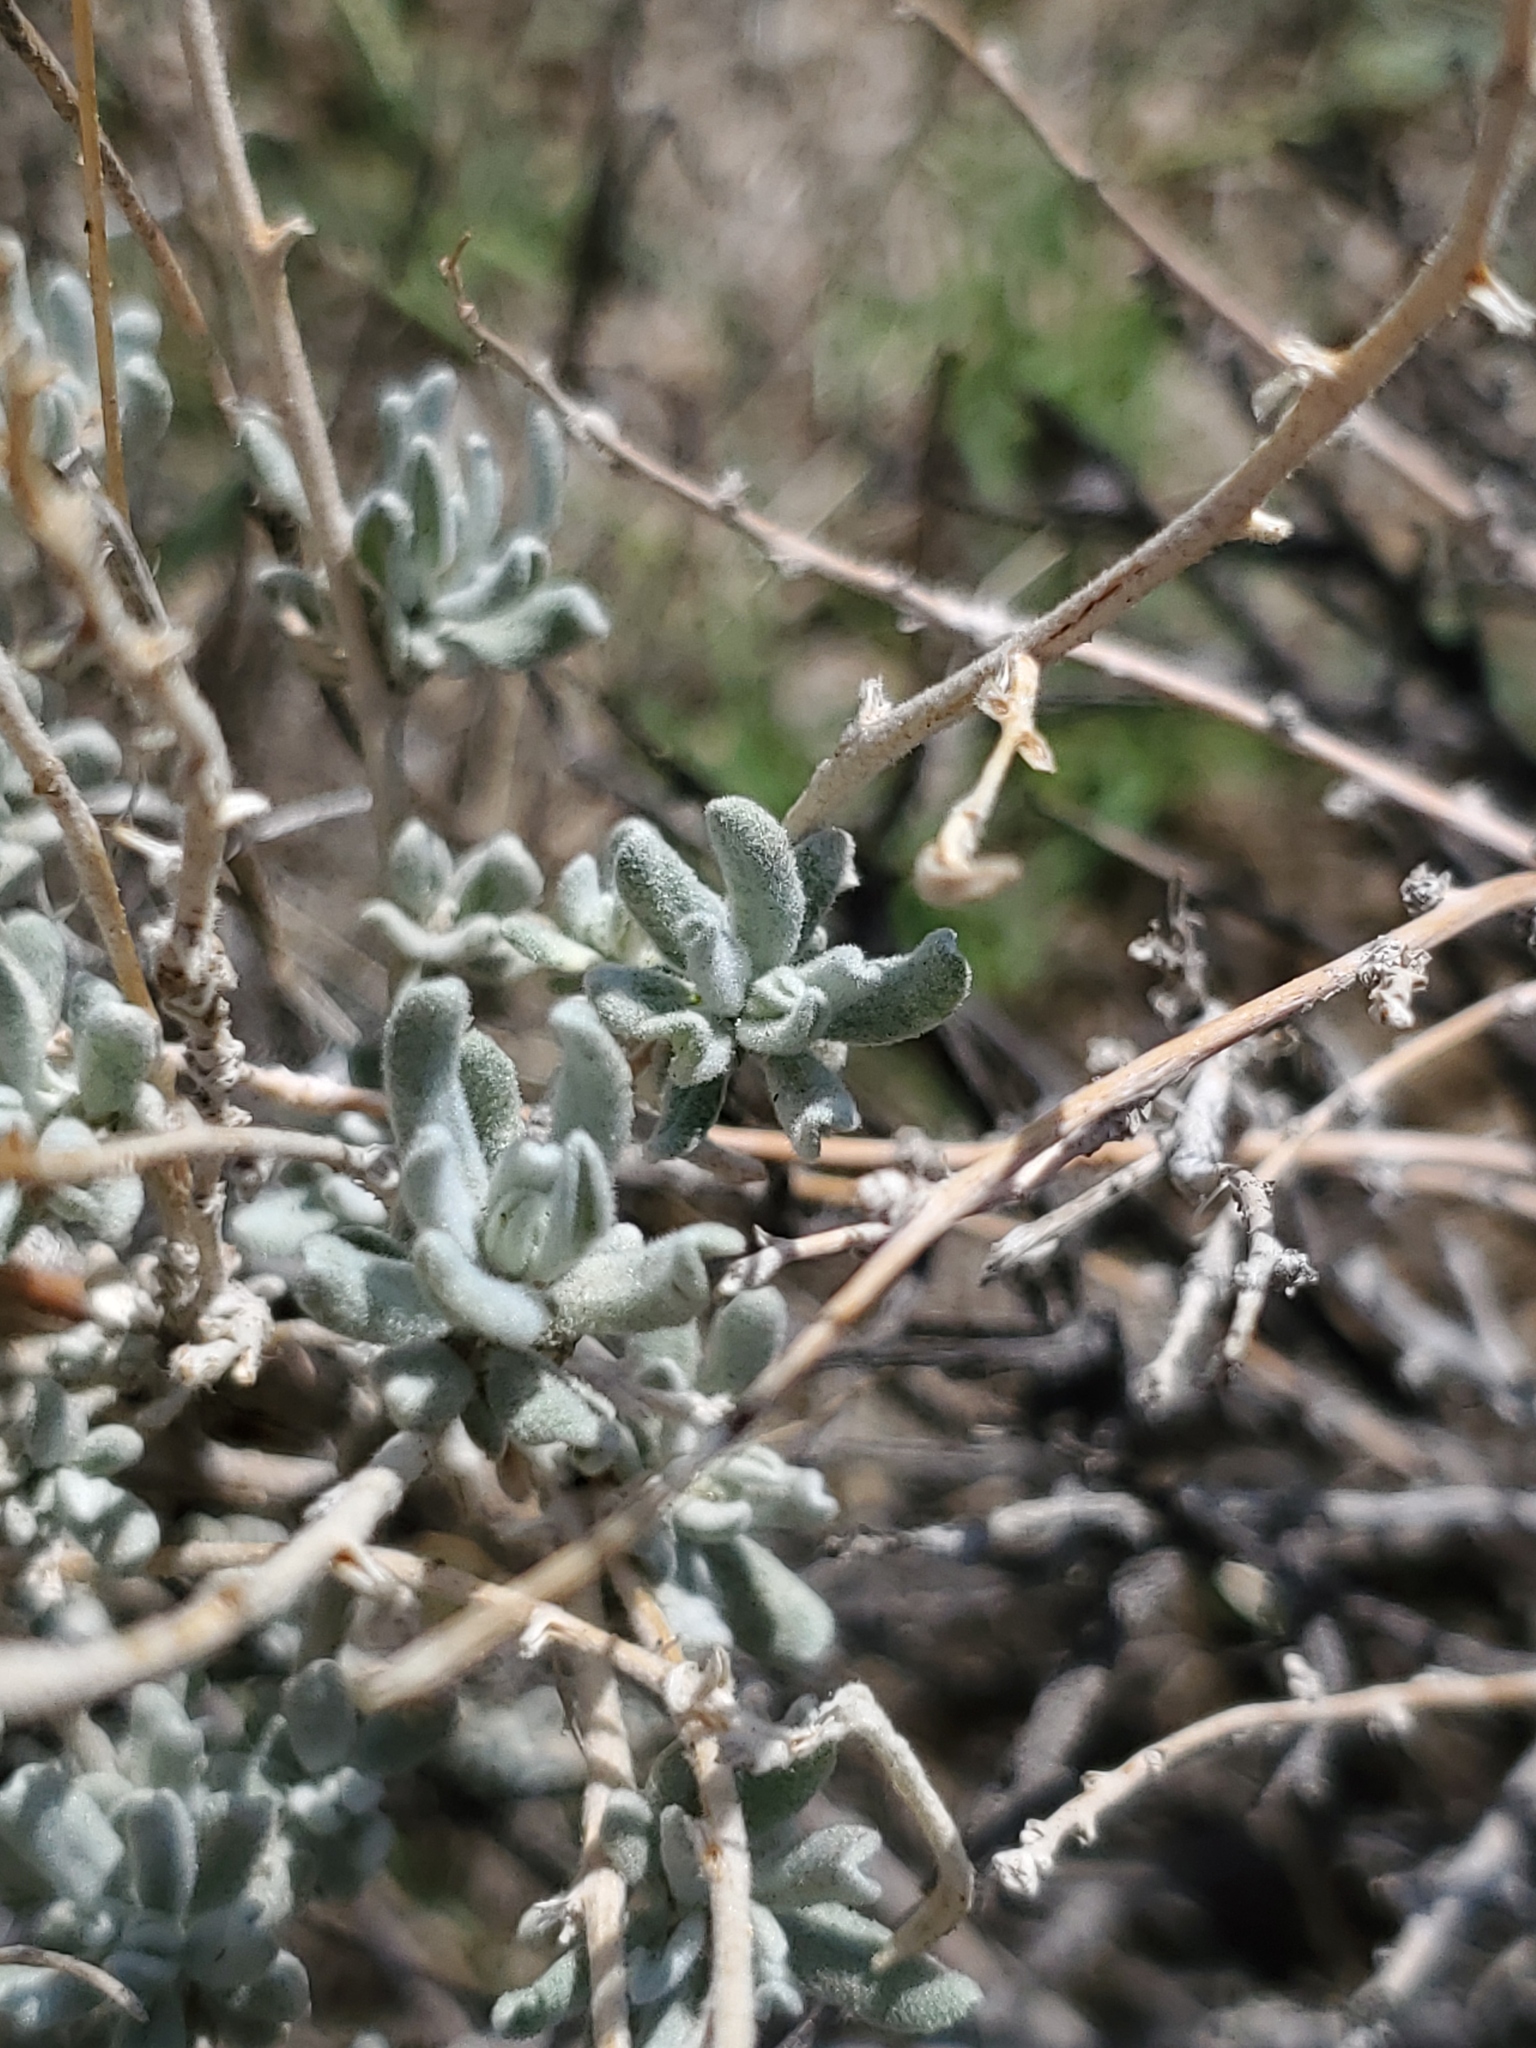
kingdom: Plantae
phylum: Tracheophyta
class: Magnoliopsida
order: Caryophyllales
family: Amaranthaceae
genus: Krascheninnikovia
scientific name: Krascheninnikovia lanata
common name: Winterfat
